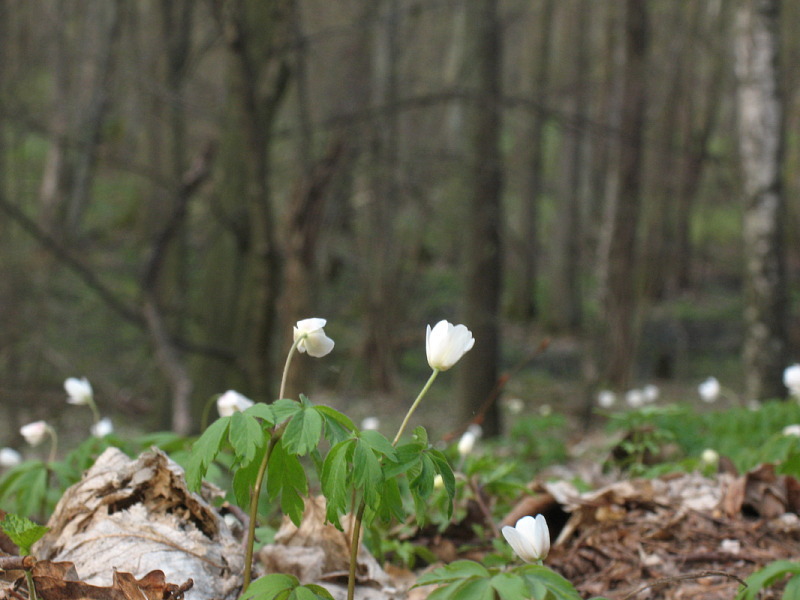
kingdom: Plantae
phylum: Tracheophyta
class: Magnoliopsida
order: Ranunculales
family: Ranunculaceae
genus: Anemone
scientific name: Anemone nemorosa
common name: Wood anemone
